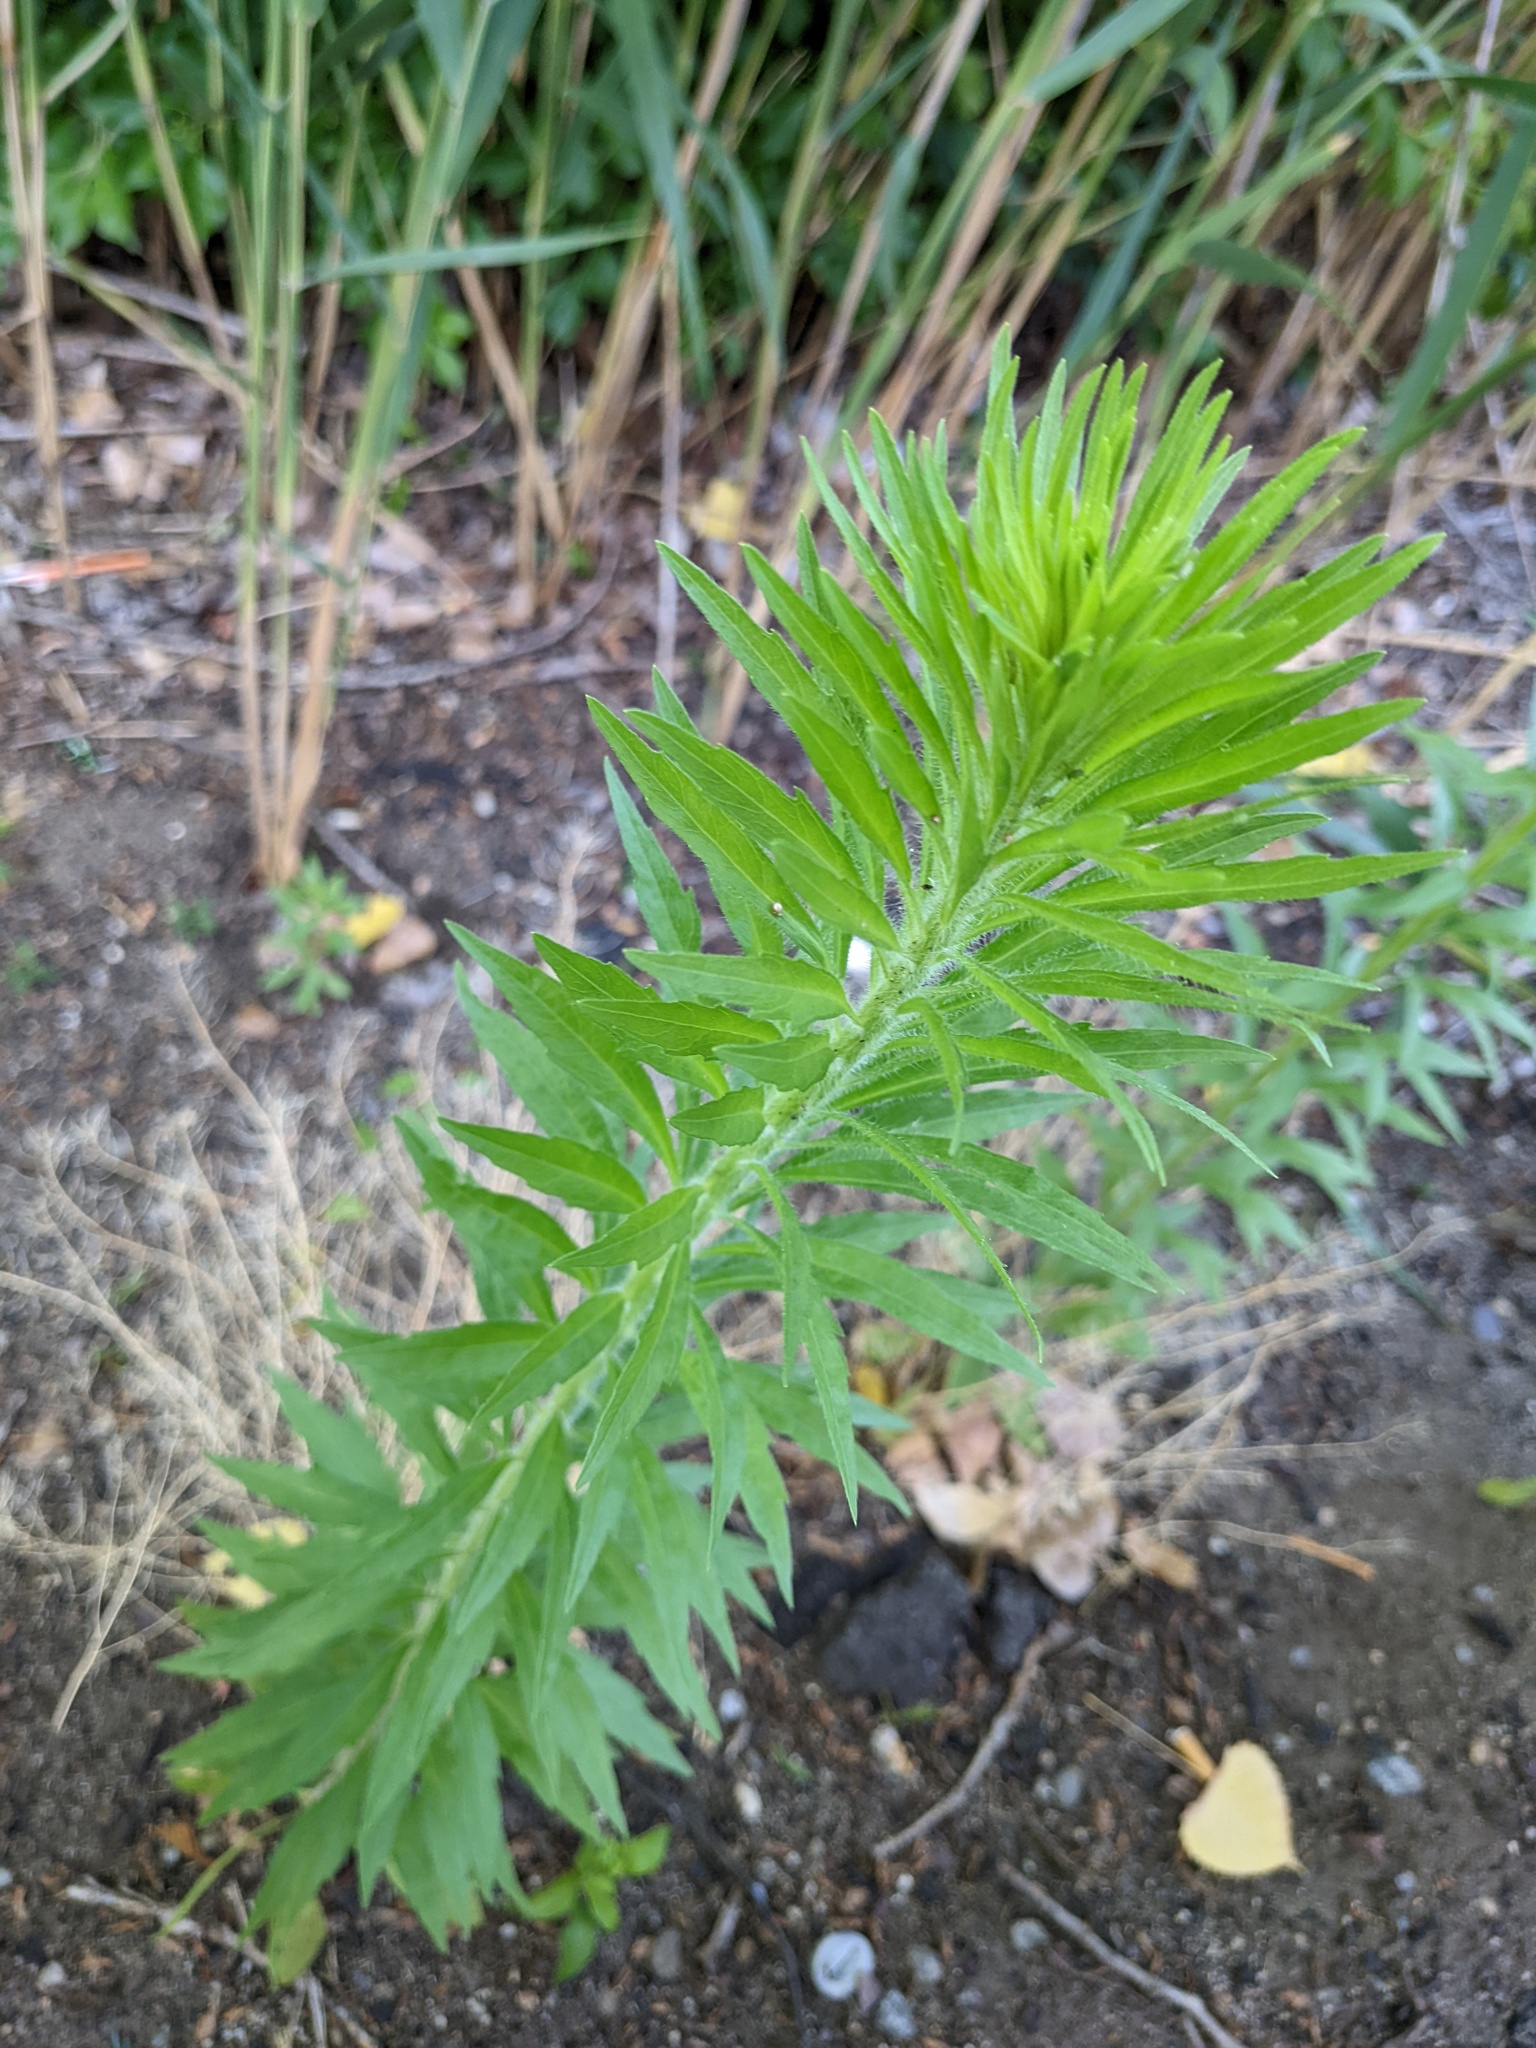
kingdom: Plantae
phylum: Tracheophyta
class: Magnoliopsida
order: Asterales
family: Asteraceae
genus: Erigeron
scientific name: Erigeron canadensis
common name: Canadian fleabane
